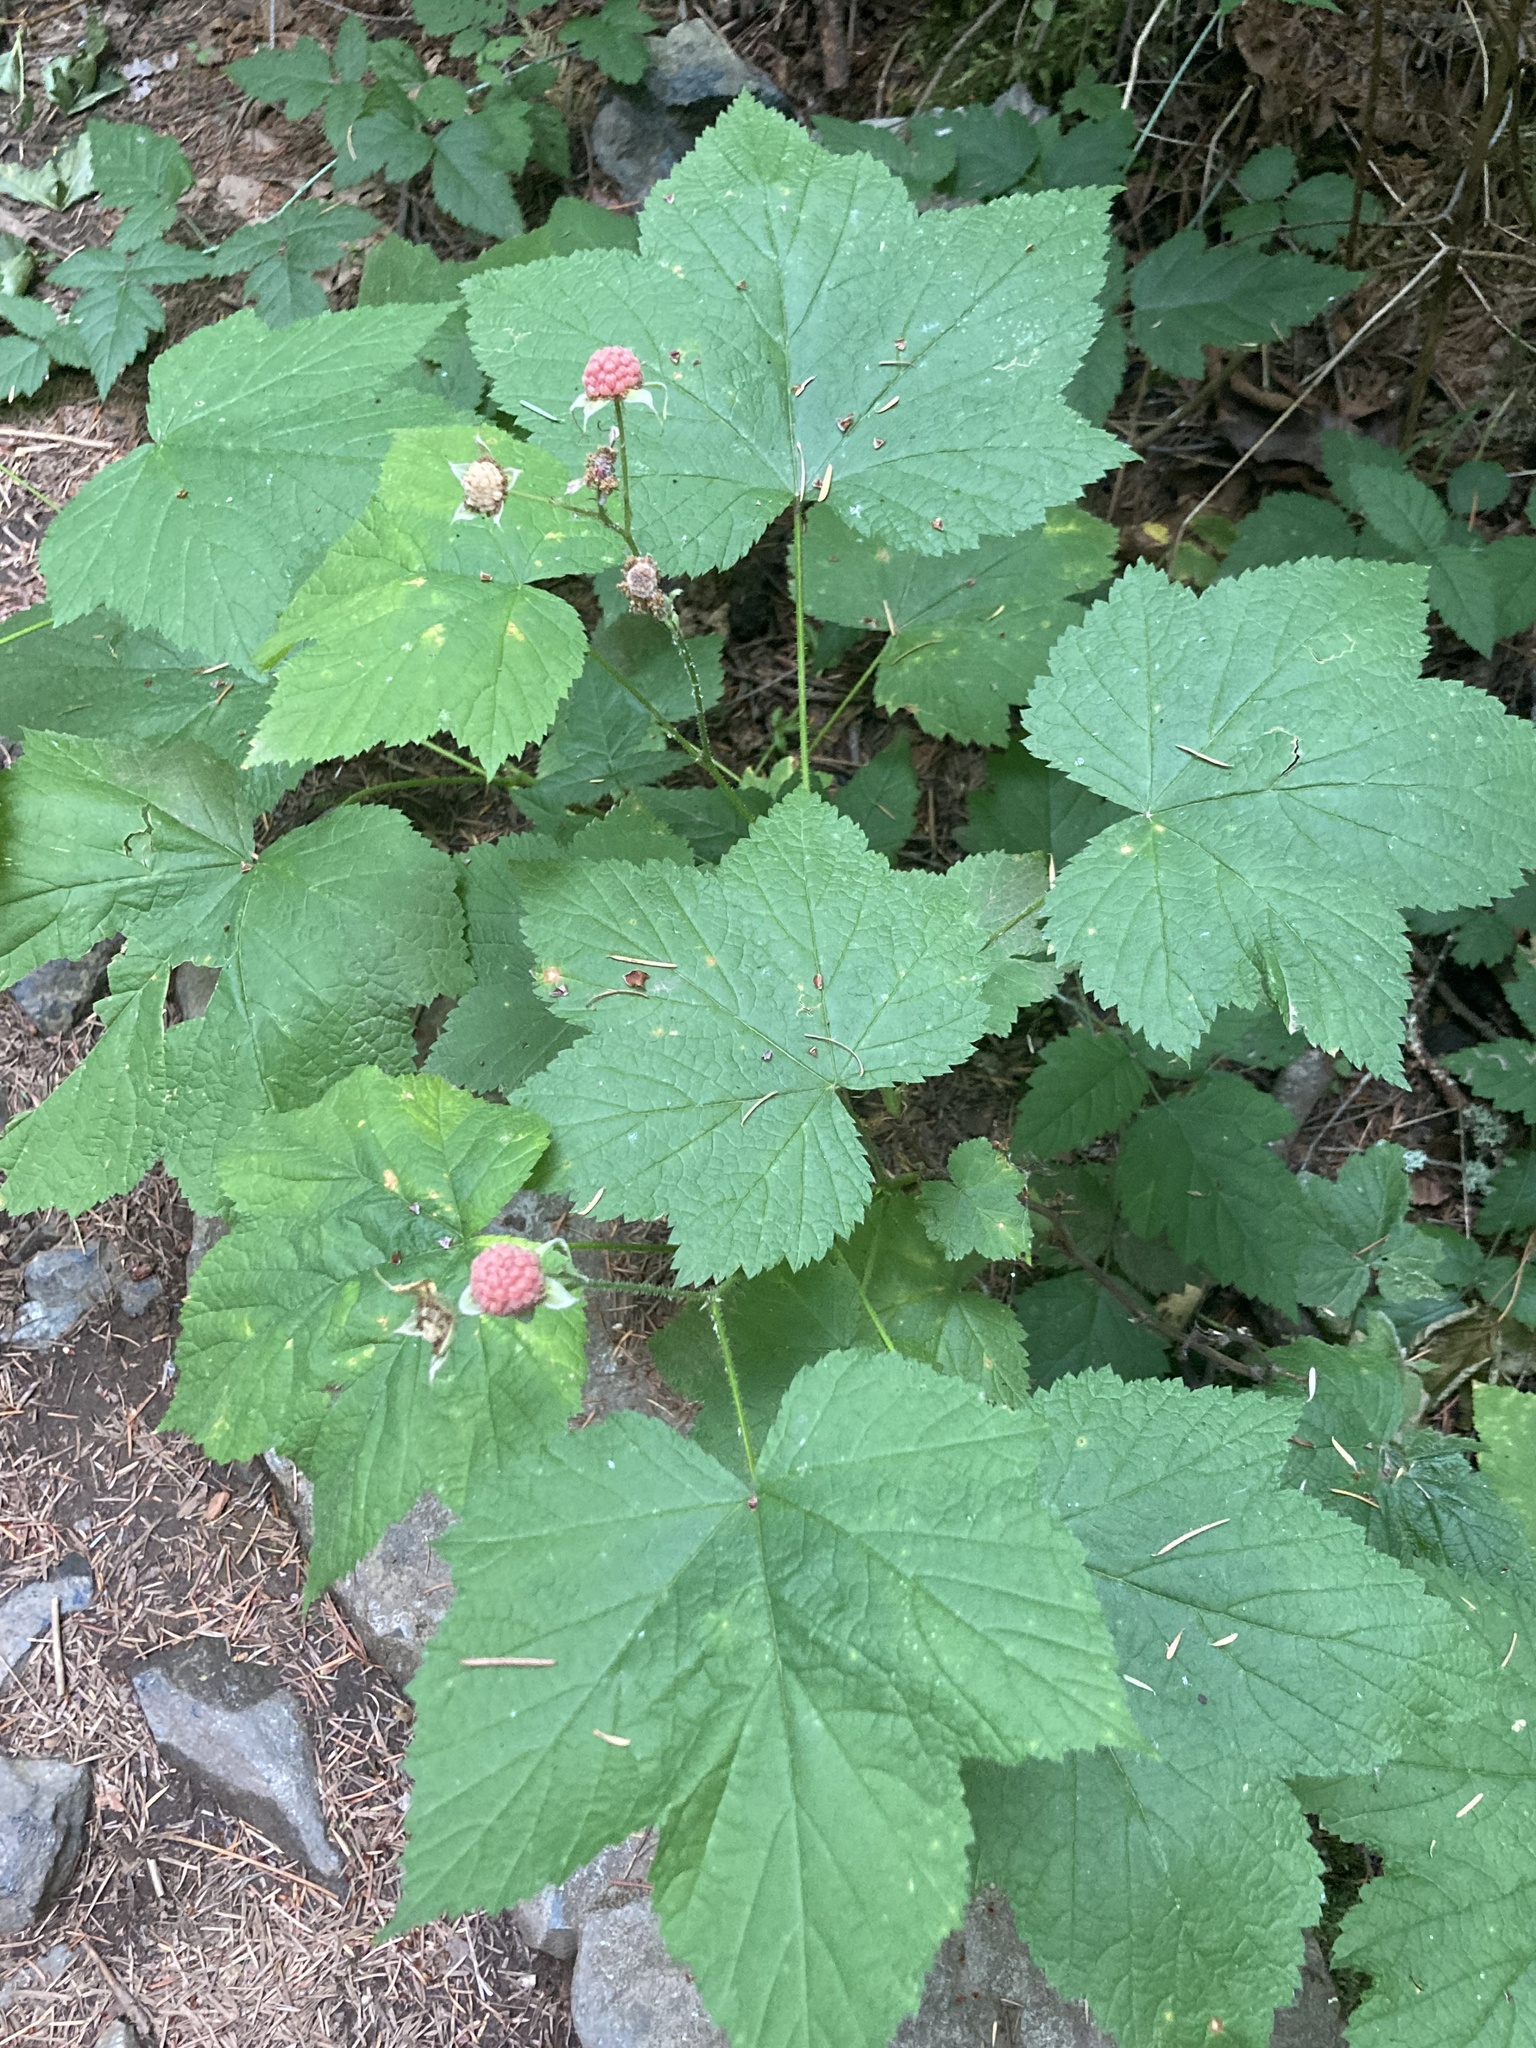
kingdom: Plantae
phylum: Tracheophyta
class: Magnoliopsida
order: Rosales
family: Rosaceae
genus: Rubus
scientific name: Rubus parviflorus
